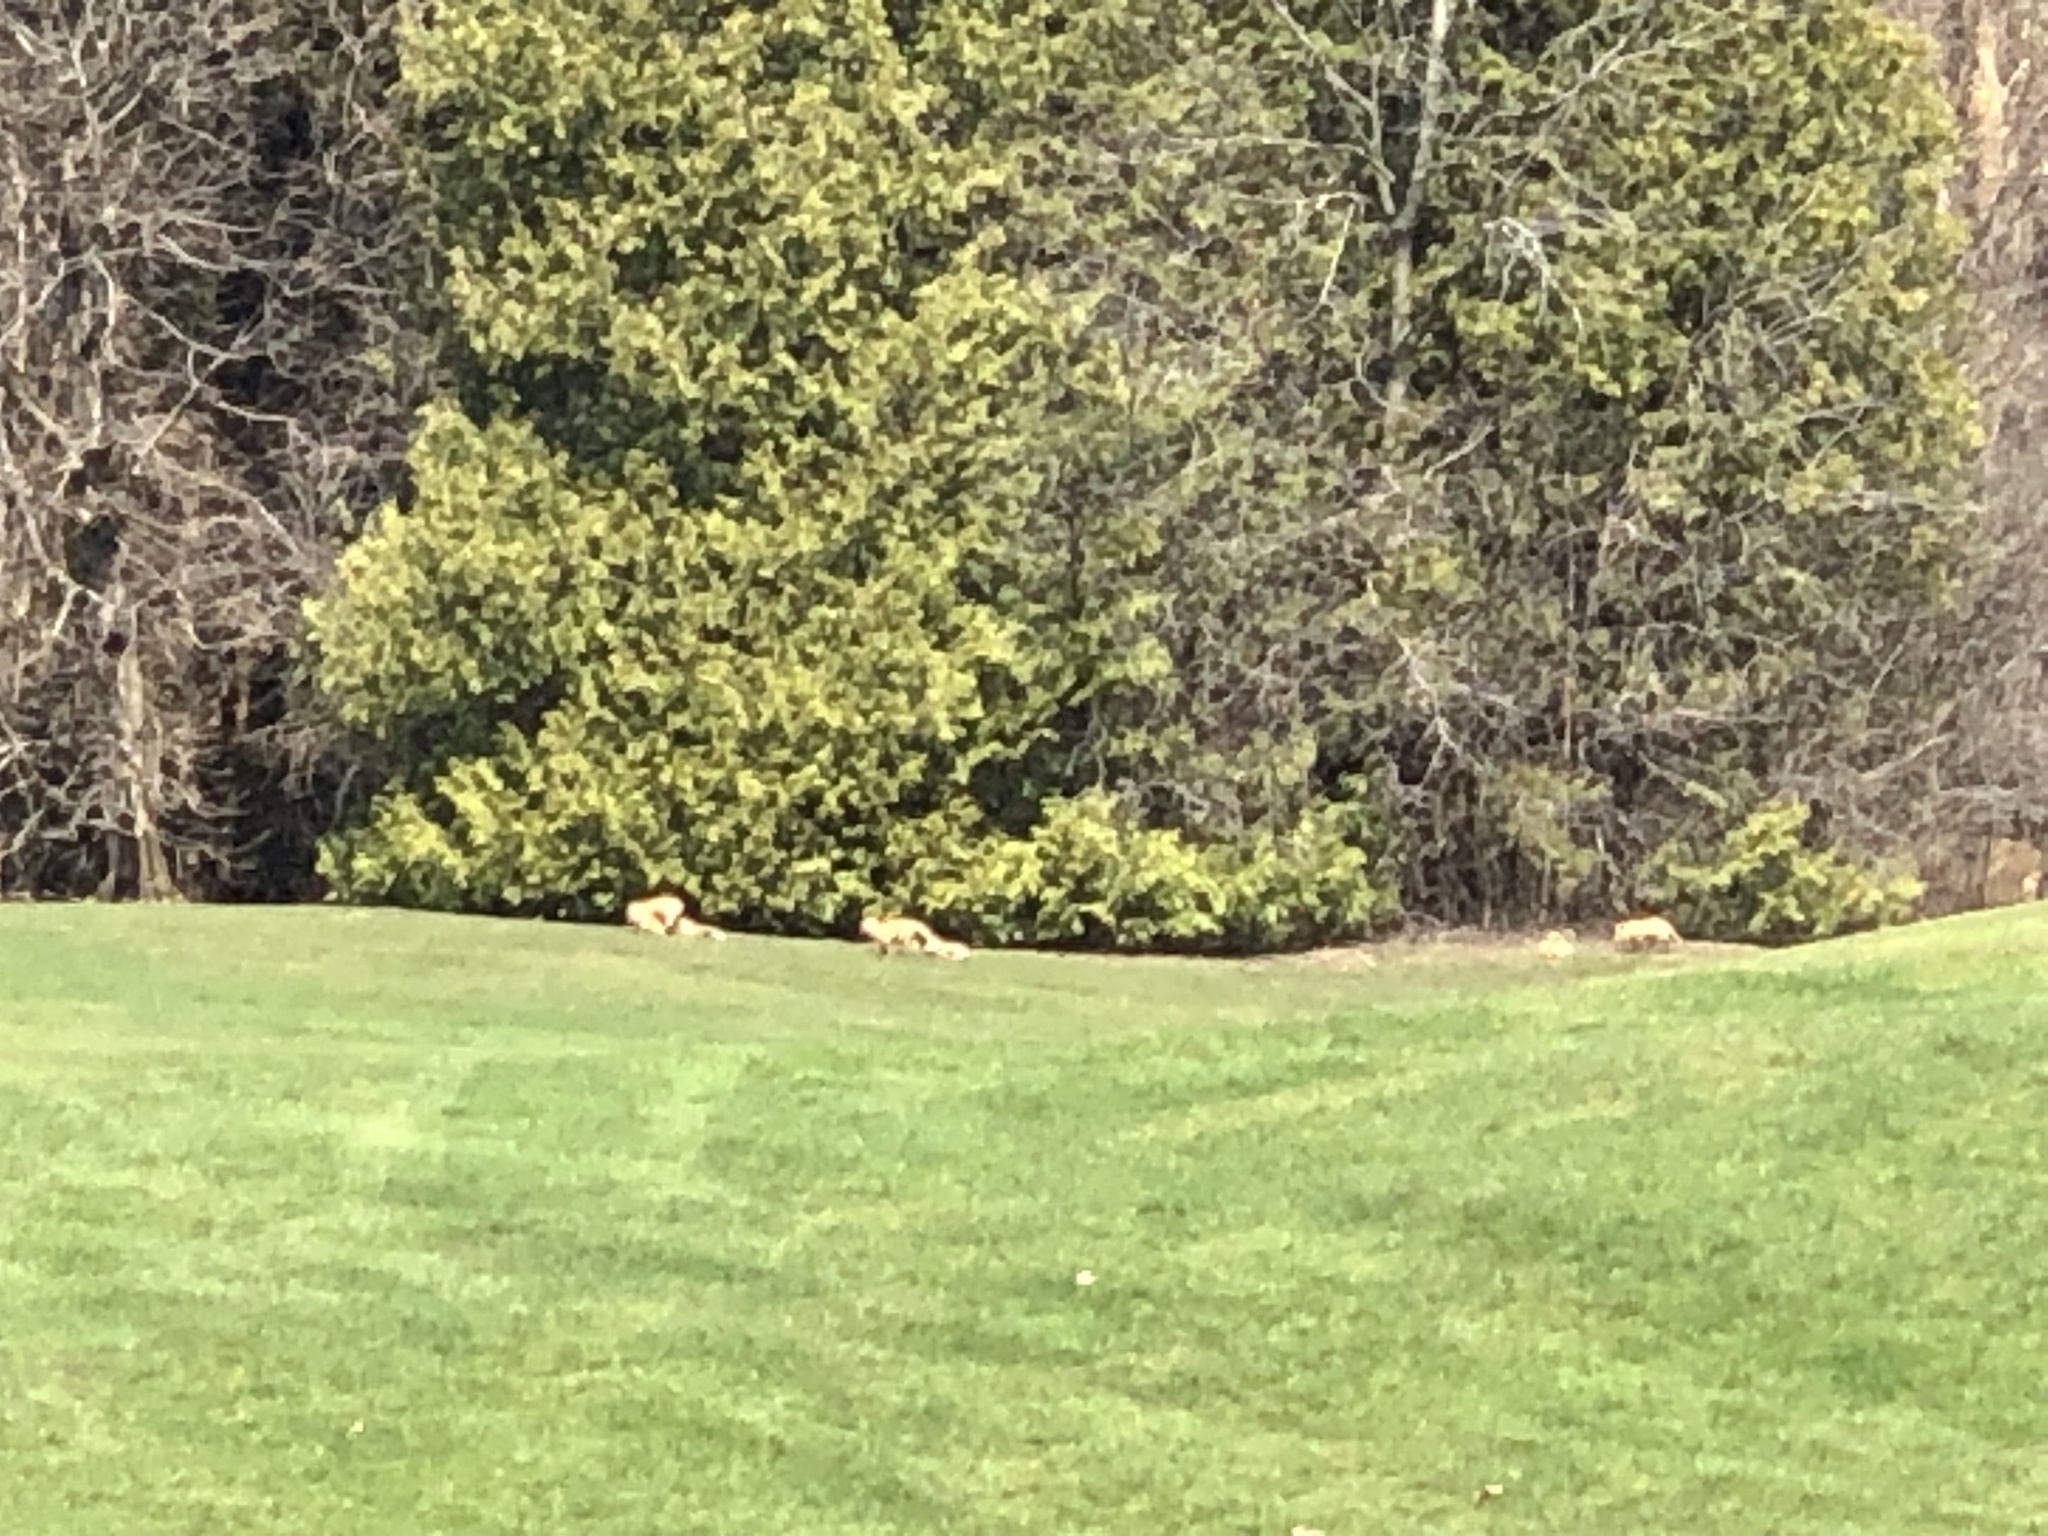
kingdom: Animalia
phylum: Chordata
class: Mammalia
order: Carnivora
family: Canidae
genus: Vulpes
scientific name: Vulpes vulpes
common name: Red fox
